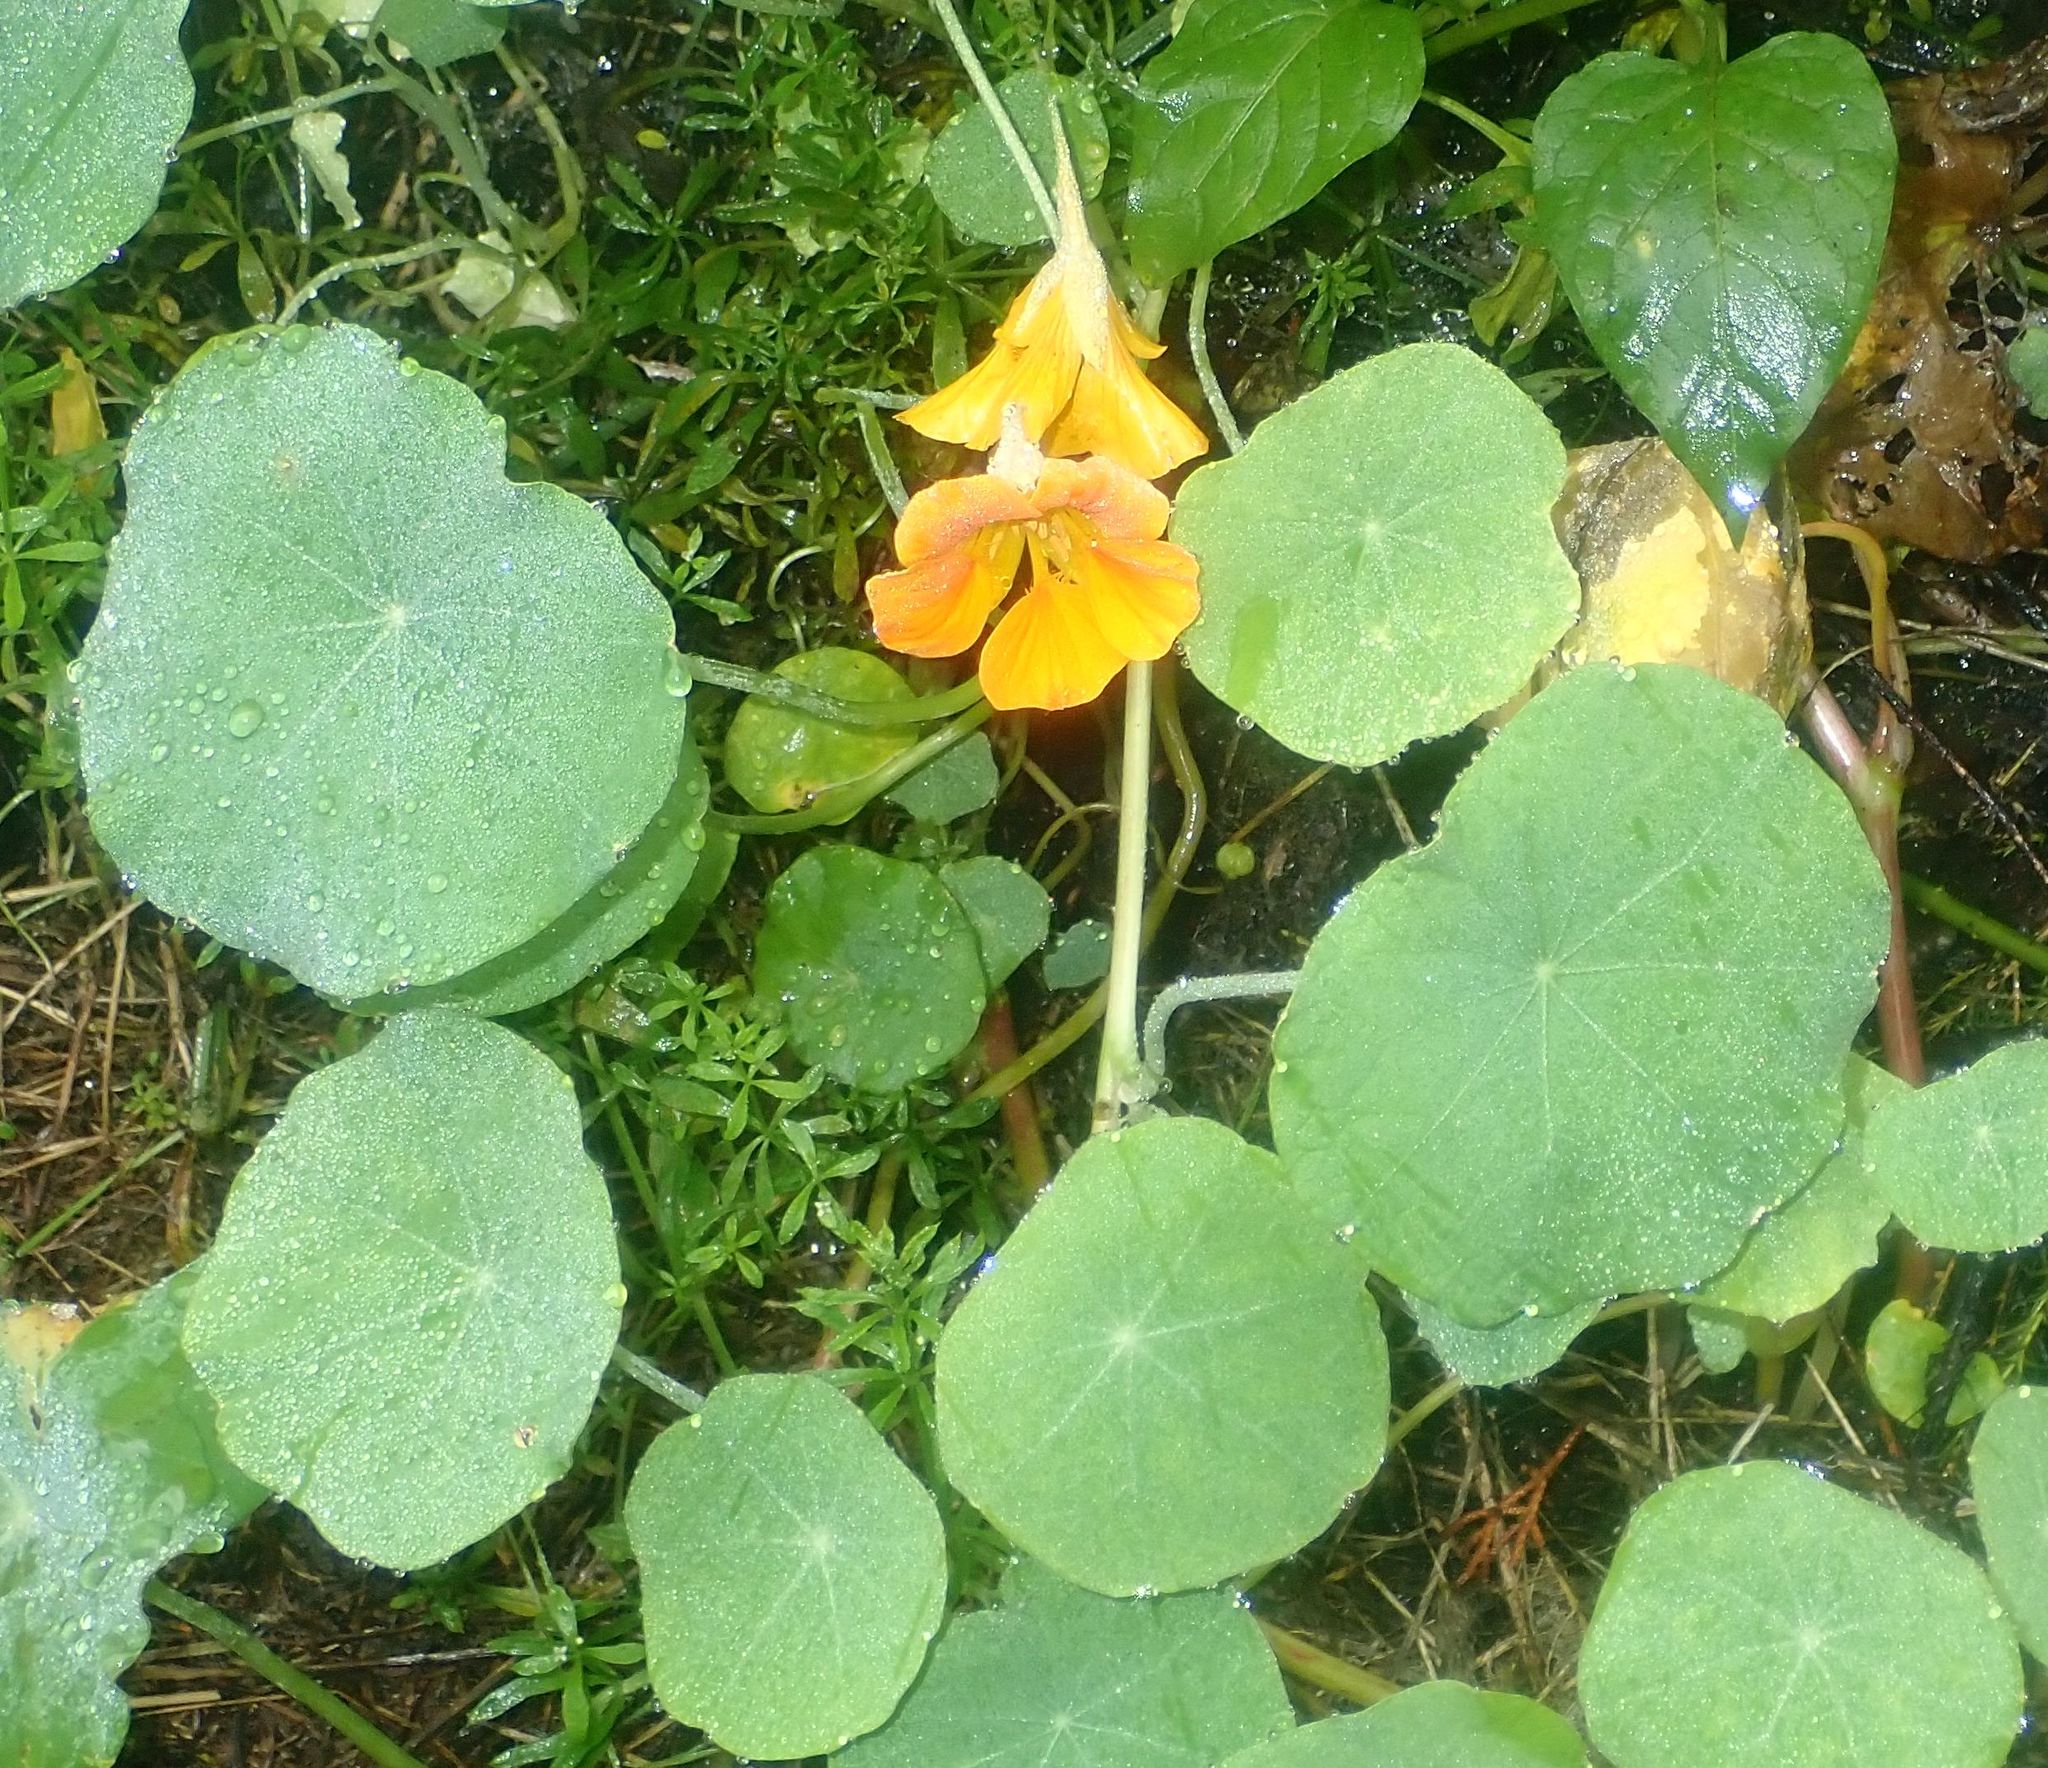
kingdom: Plantae
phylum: Tracheophyta
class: Magnoliopsida
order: Brassicales
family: Tropaeolaceae
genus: Tropaeolum
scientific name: Tropaeolum majus
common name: Nasturtium
